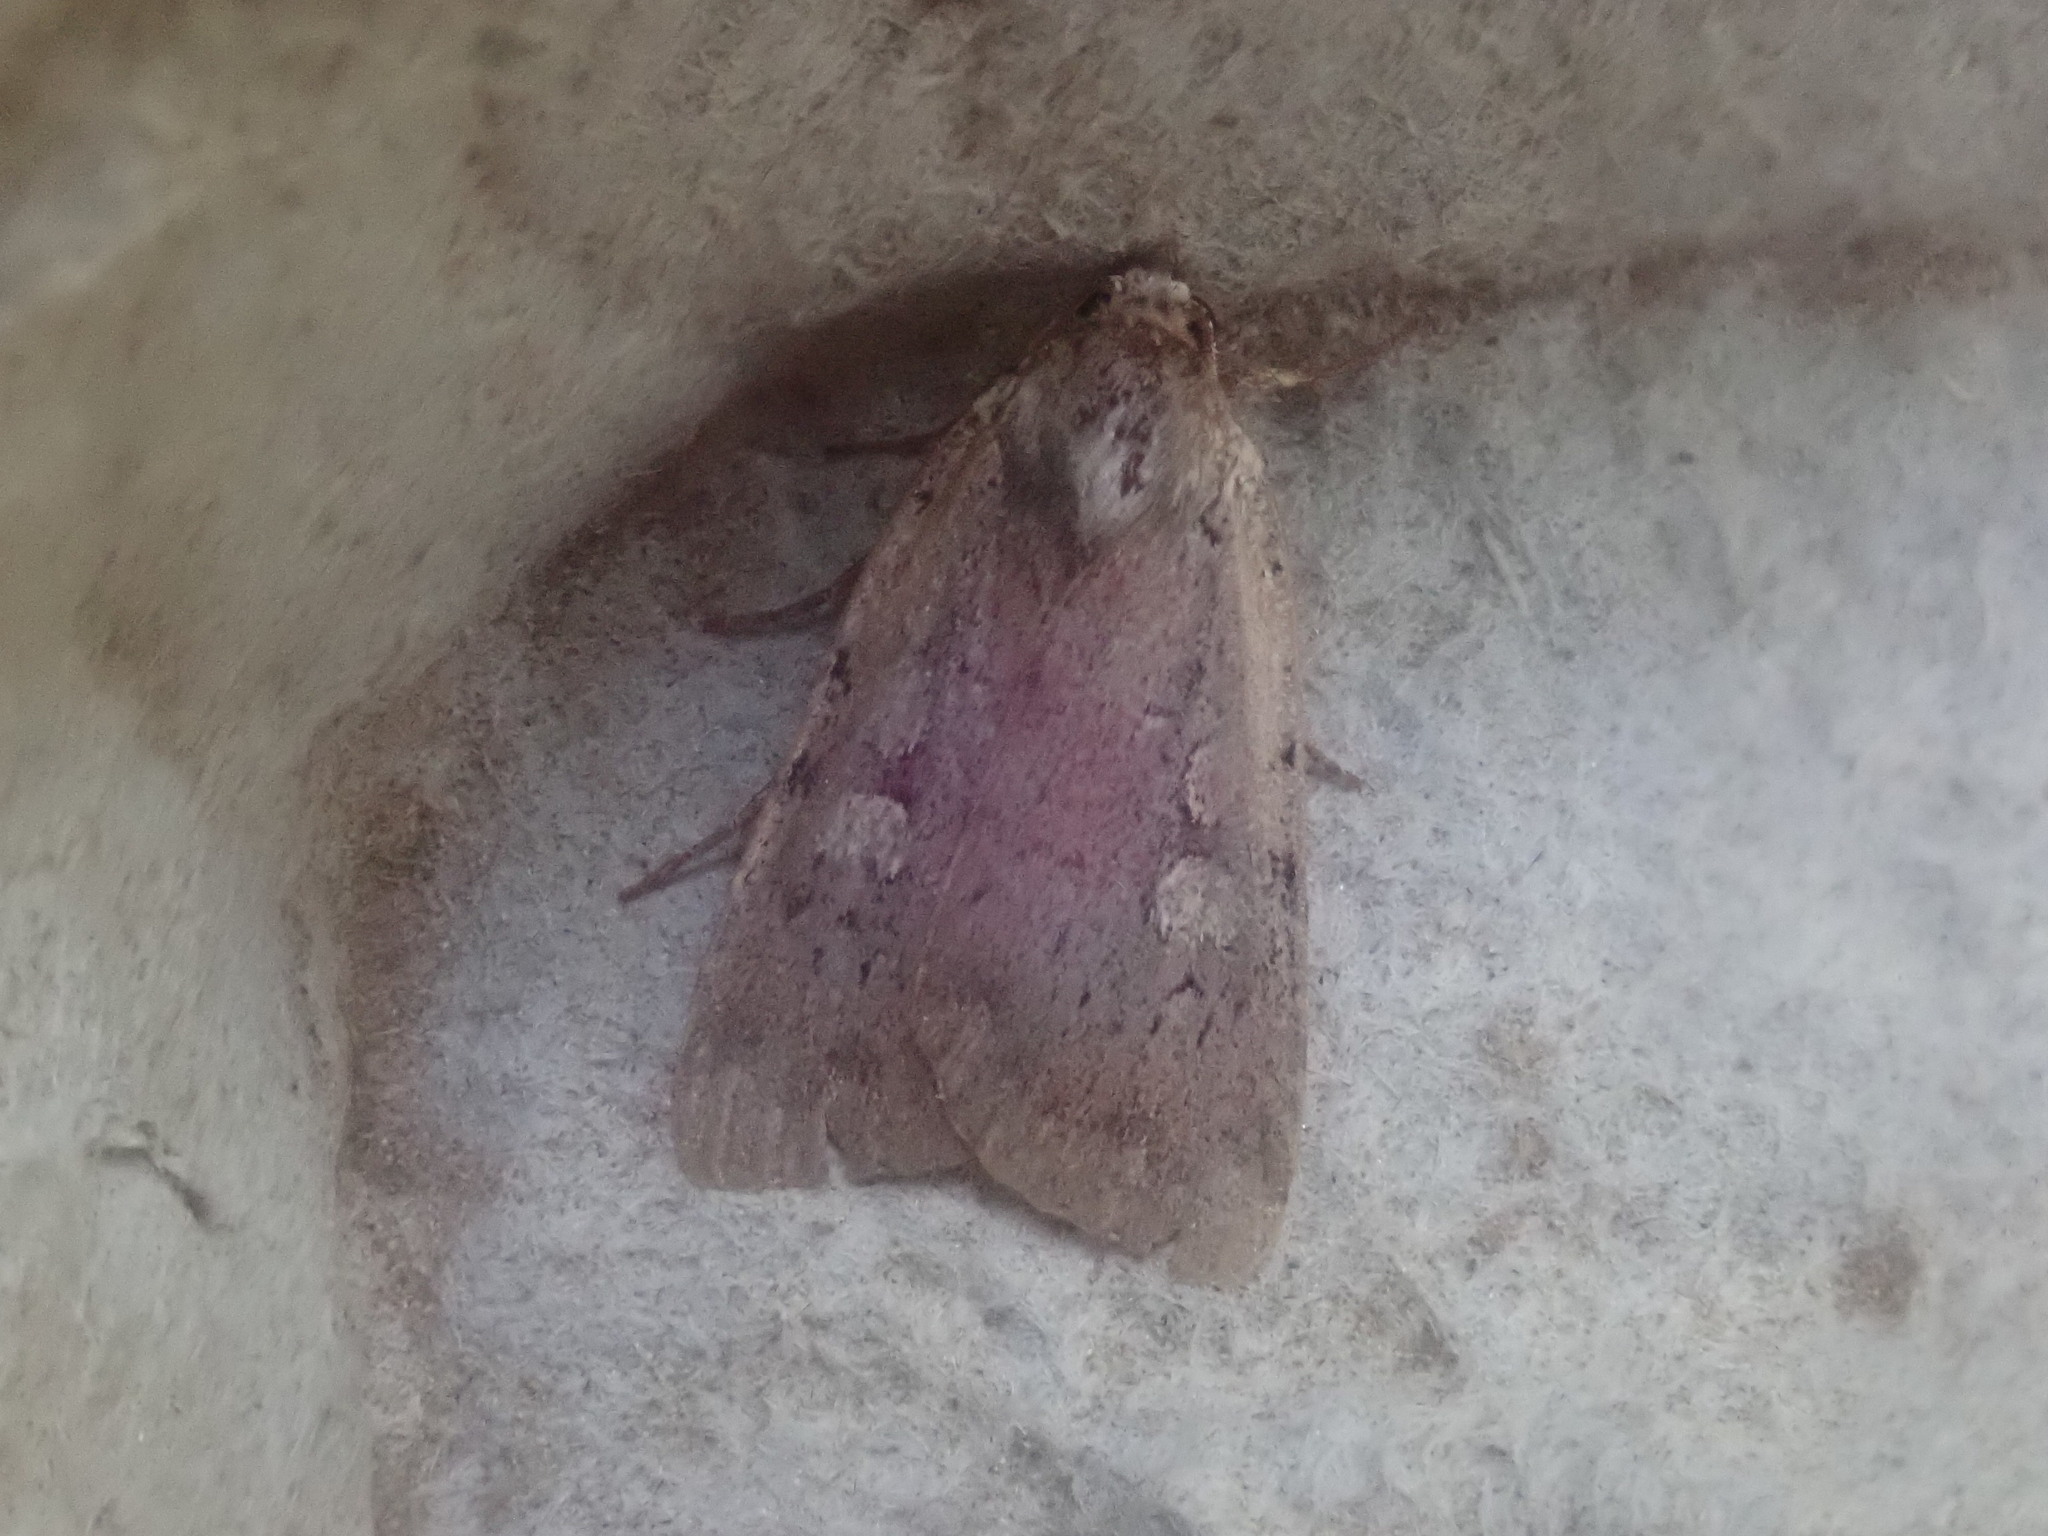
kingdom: Animalia
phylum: Arthropoda
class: Insecta
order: Lepidoptera
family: Noctuidae
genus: Xestia
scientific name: Xestia dilucida
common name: Dull reddish dart
